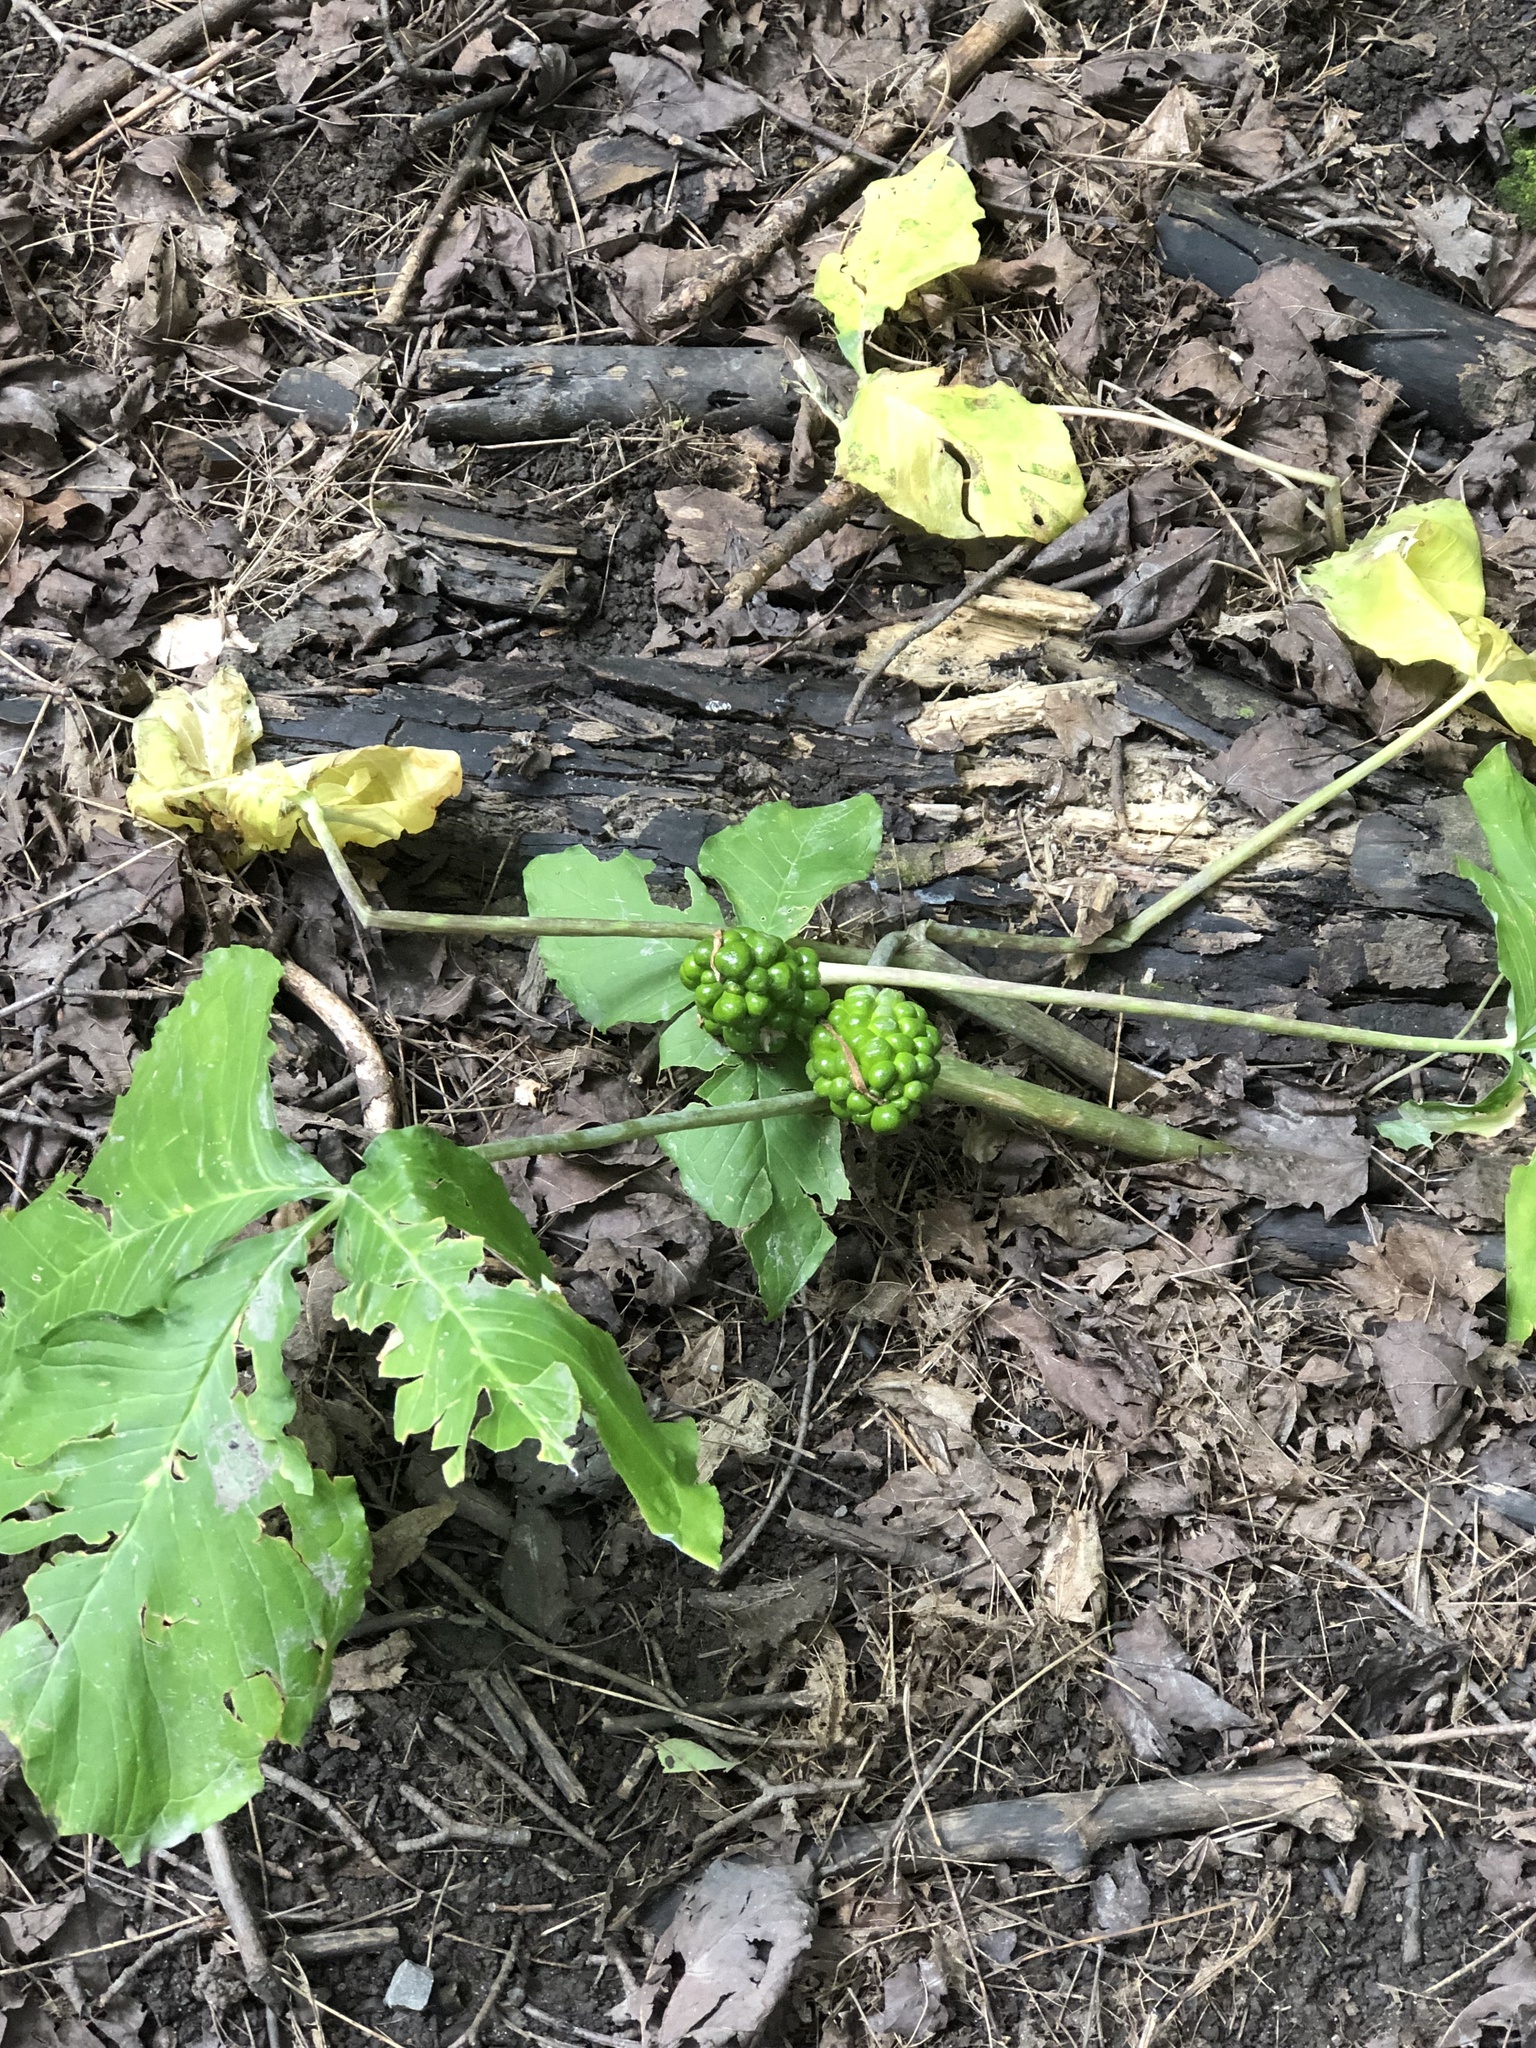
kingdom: Plantae
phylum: Tracheophyta
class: Liliopsida
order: Alismatales
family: Araceae
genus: Arisaema
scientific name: Arisaema triphyllum
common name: Jack-in-the-pulpit
